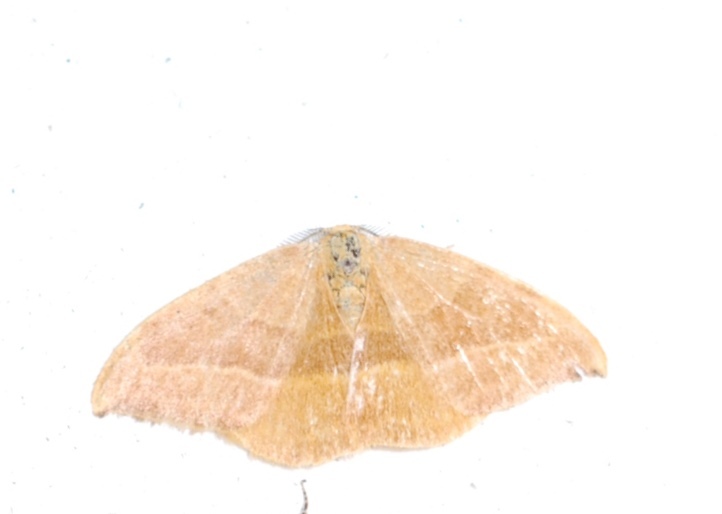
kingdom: Animalia
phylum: Arthropoda
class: Insecta
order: Lepidoptera
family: Drepanidae
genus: Watsonalla
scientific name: Watsonalla cultraria
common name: Barred hook-tip
